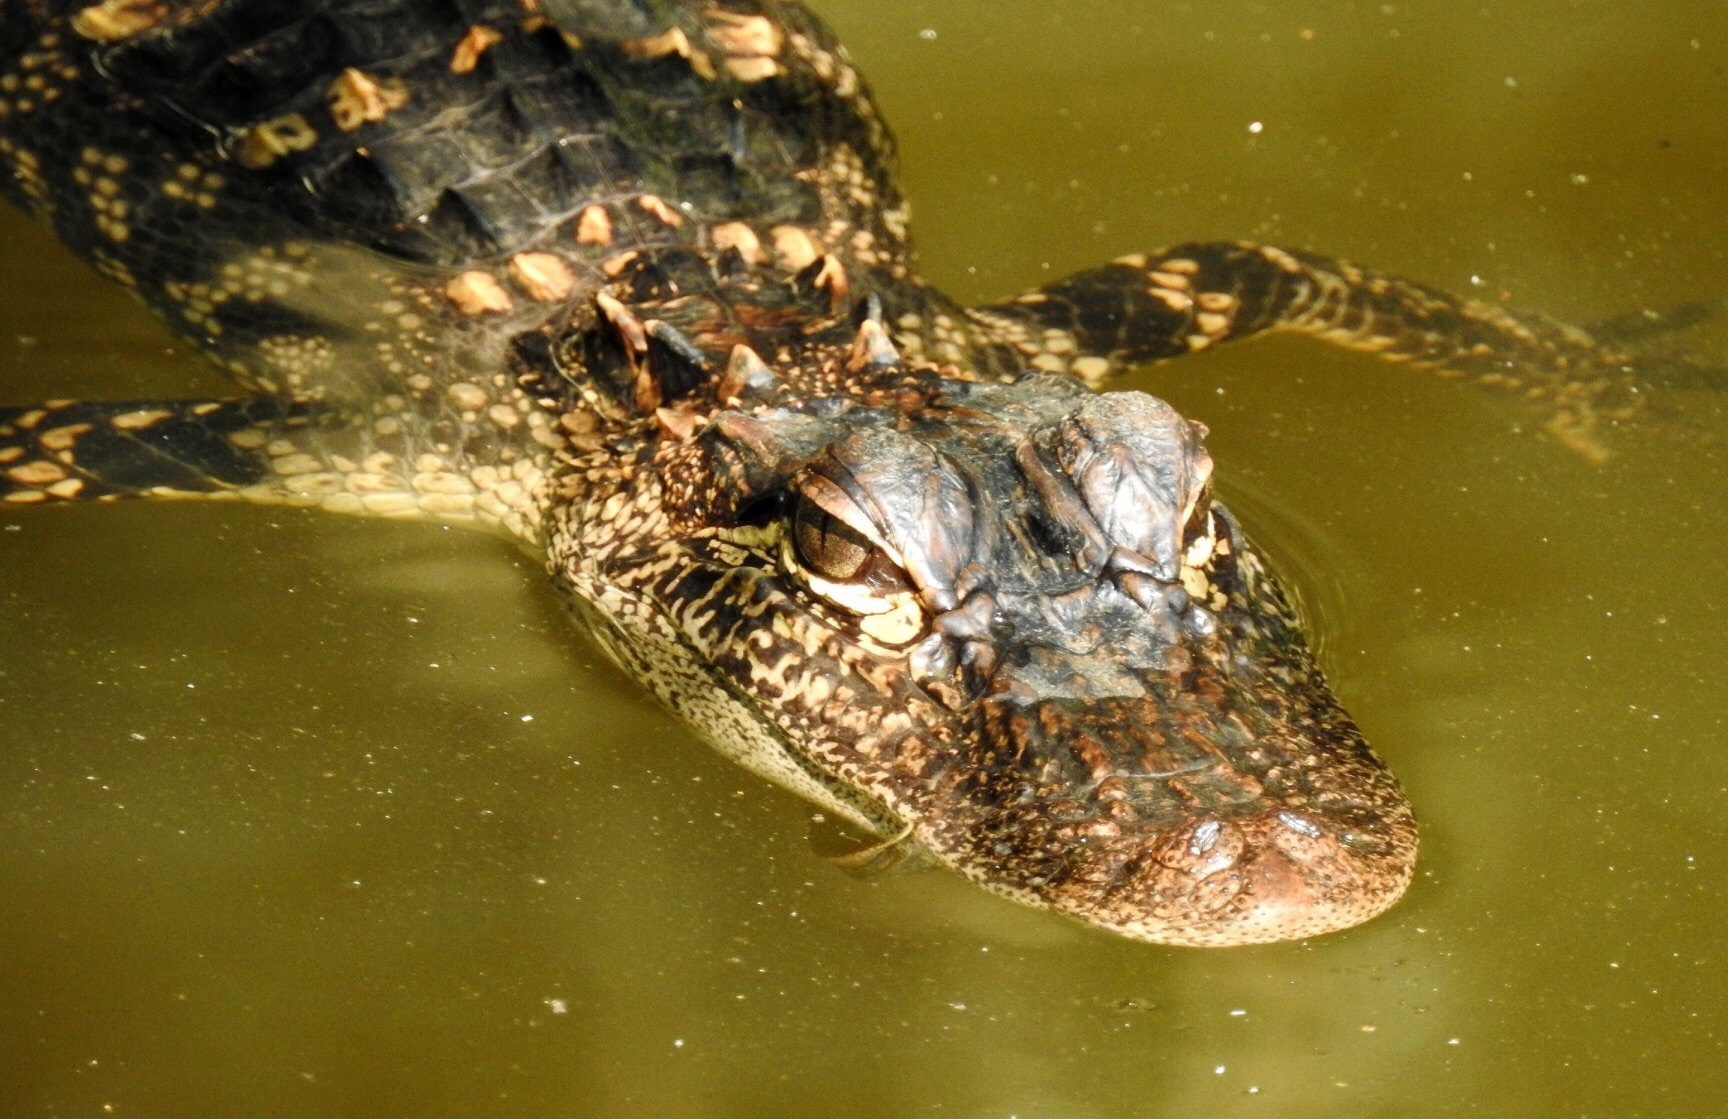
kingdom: Animalia
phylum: Chordata
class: Crocodylia
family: Alligatoridae
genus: Alligator
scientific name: Alligator mississippiensis
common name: American alligator
